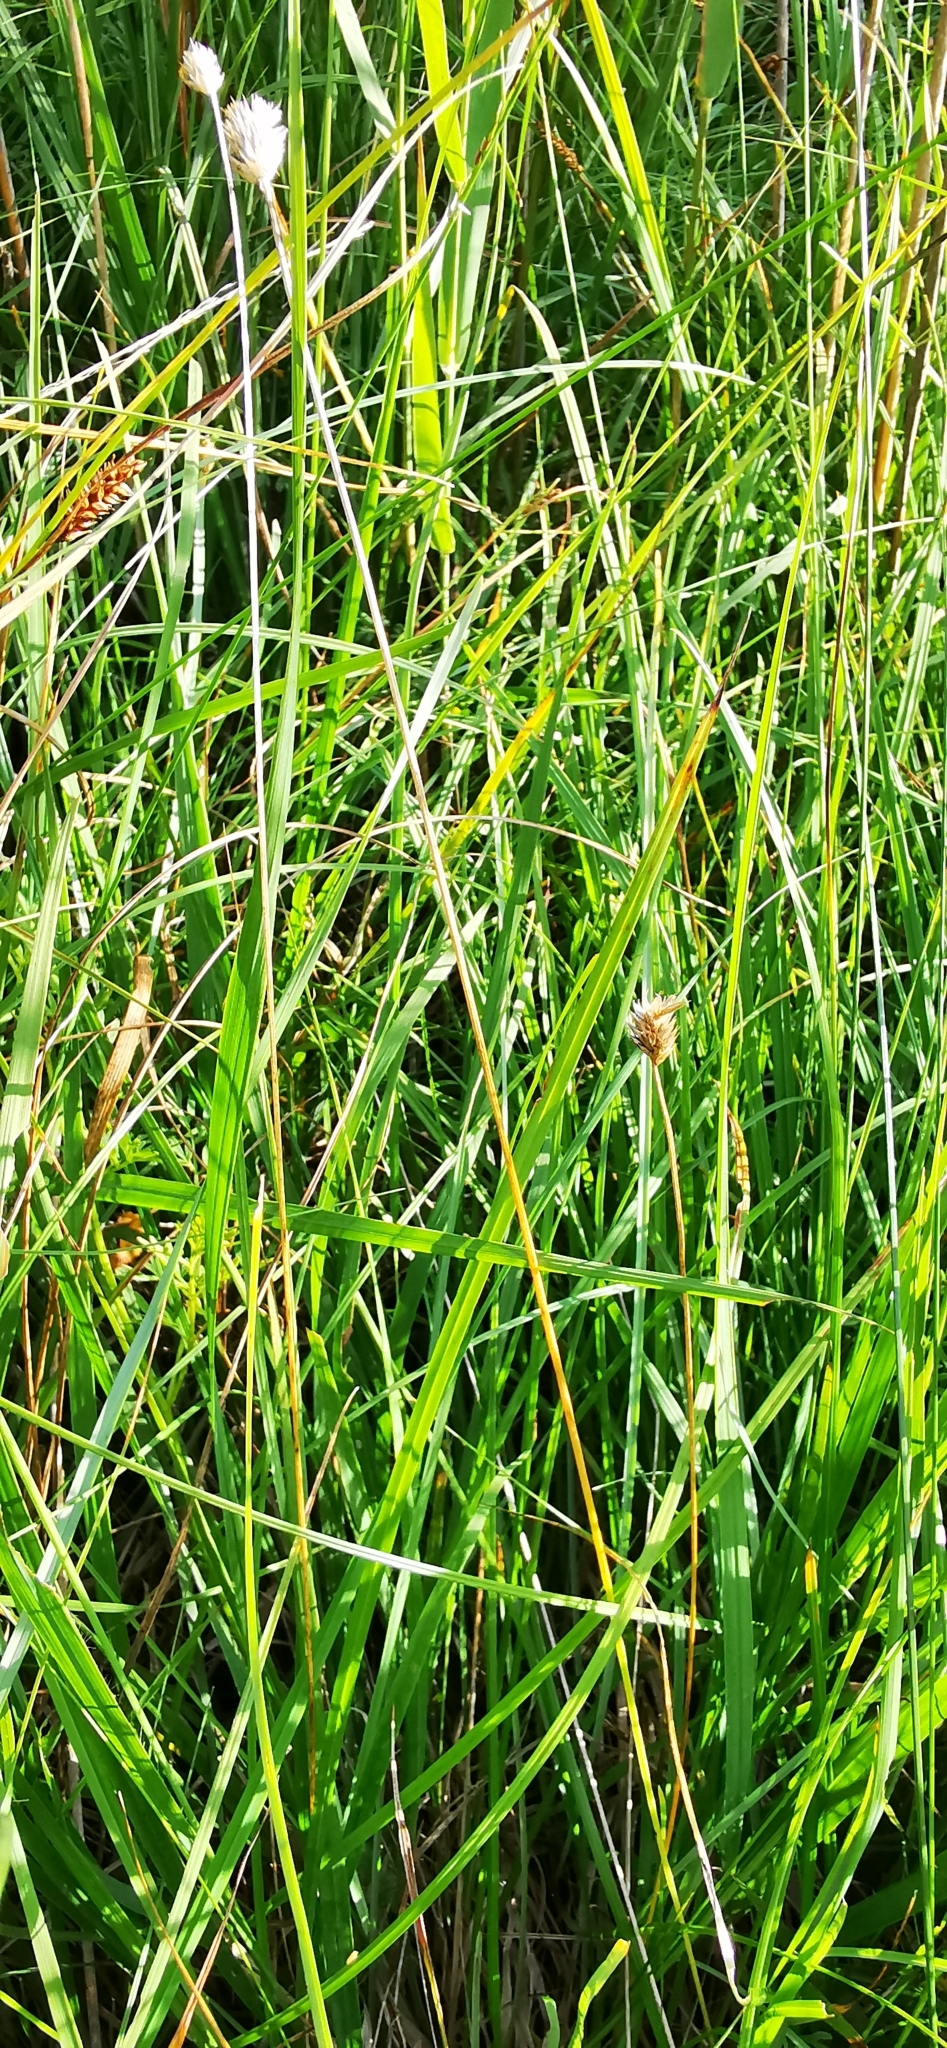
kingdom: Plantae
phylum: Tracheophyta
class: Liliopsida
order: Poales
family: Poaceae
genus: Sesleria
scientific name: Sesleria caerulea
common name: Blue moor-grass
